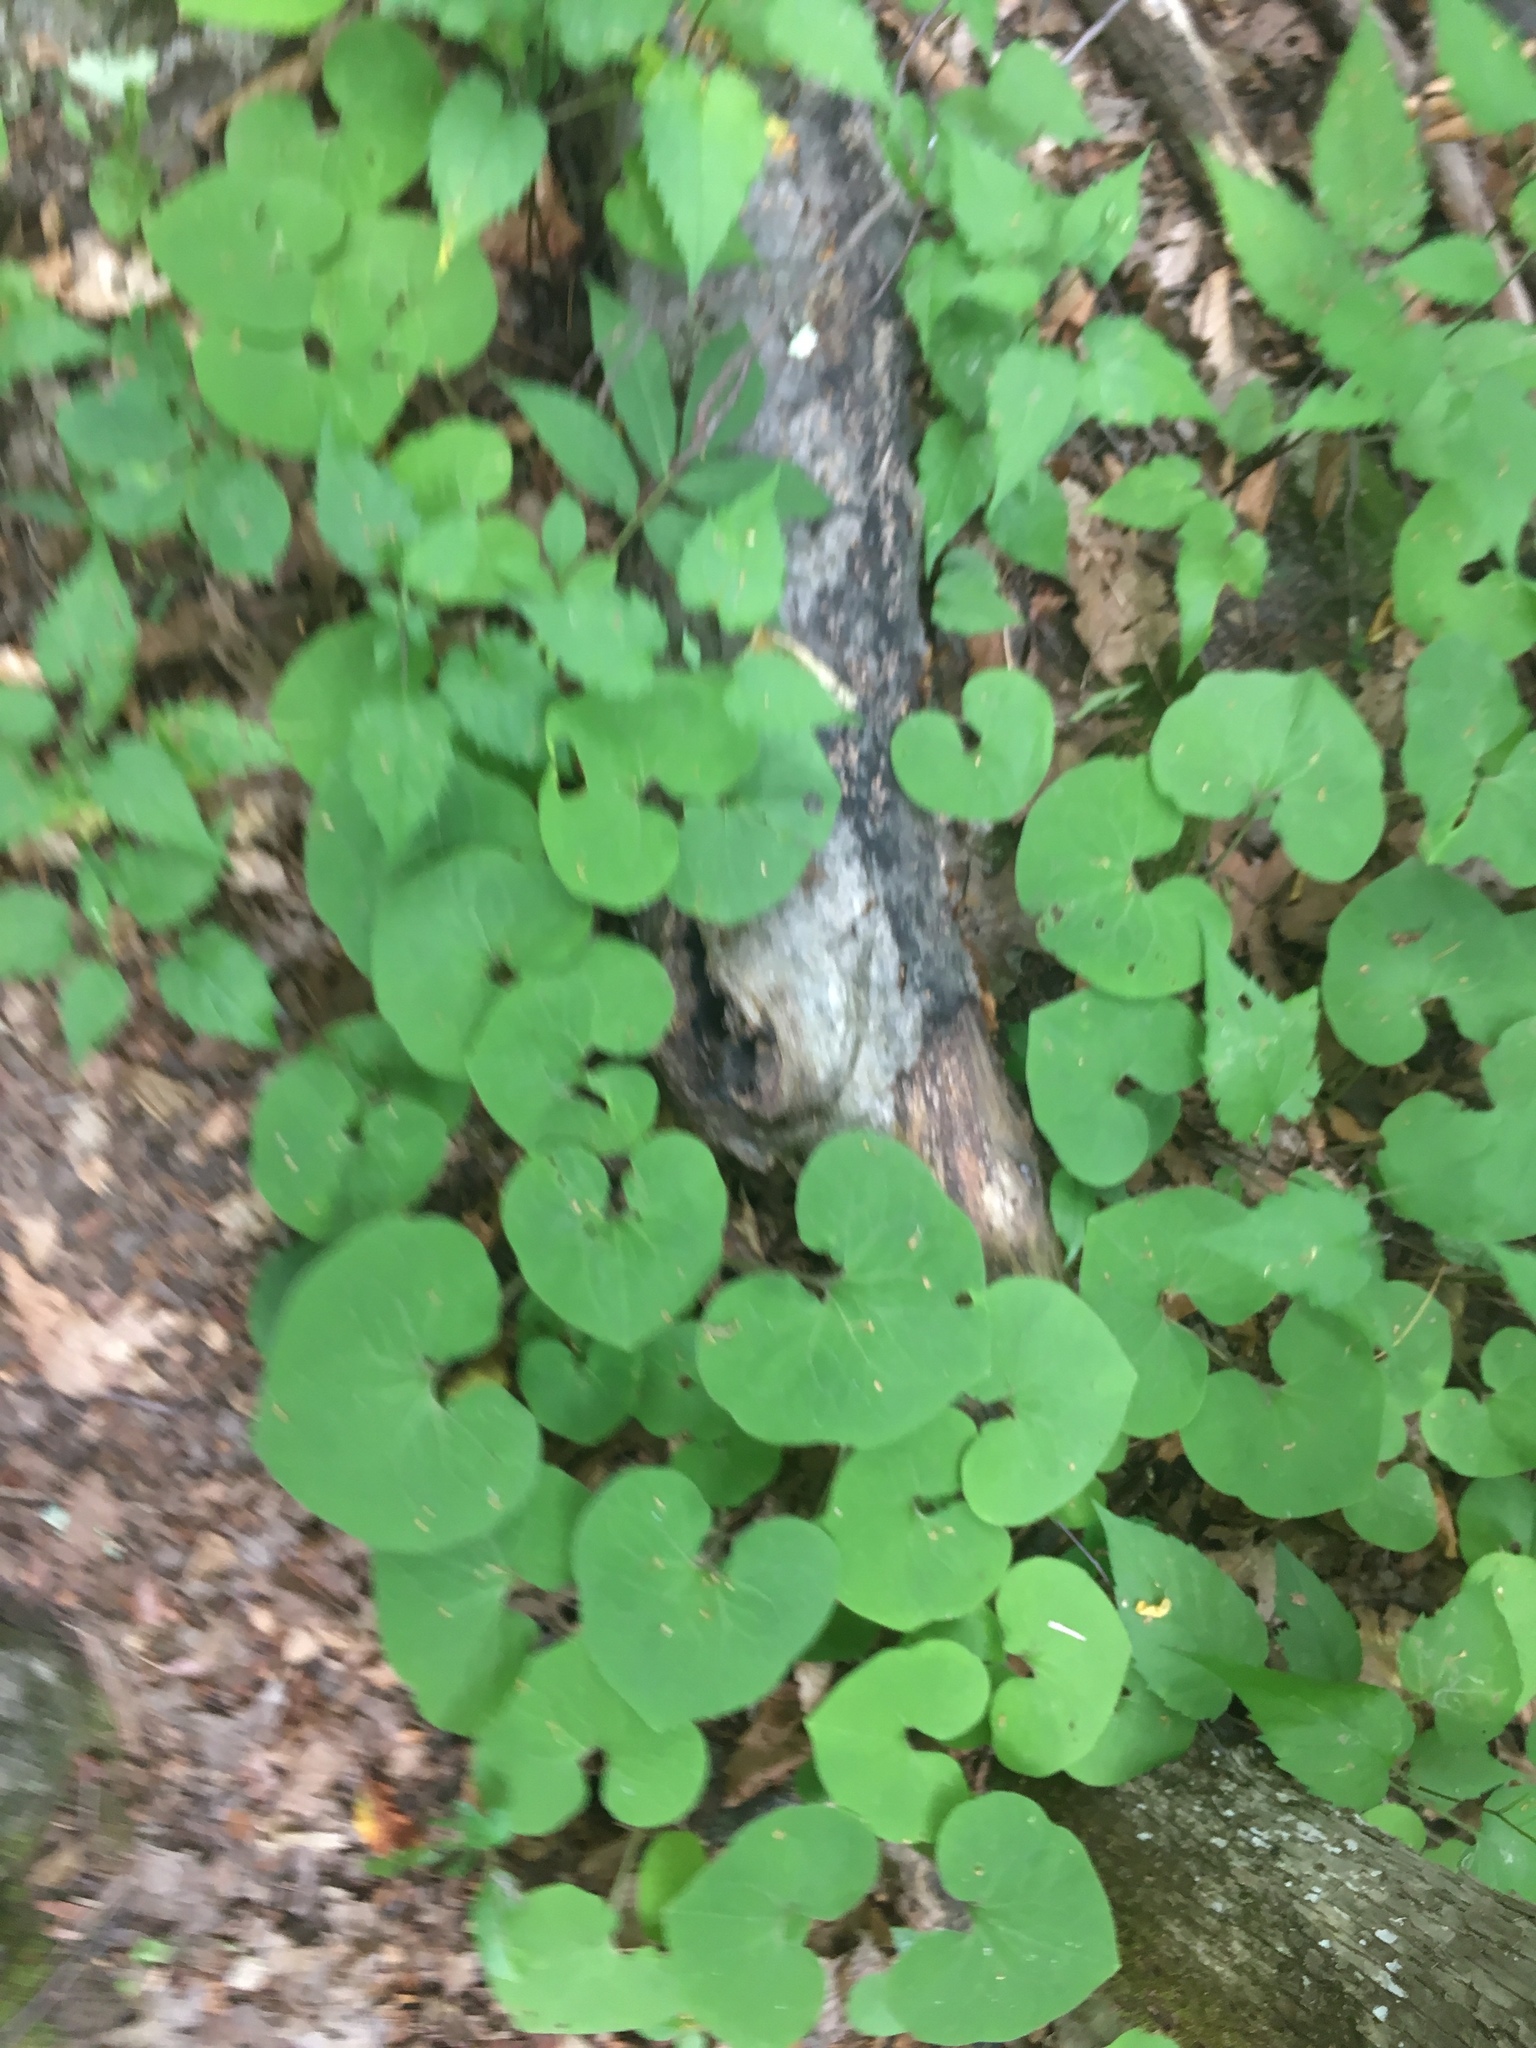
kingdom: Plantae
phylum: Tracheophyta
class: Magnoliopsida
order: Piperales
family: Aristolochiaceae
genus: Asarum
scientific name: Asarum canadense
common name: Wild ginger
